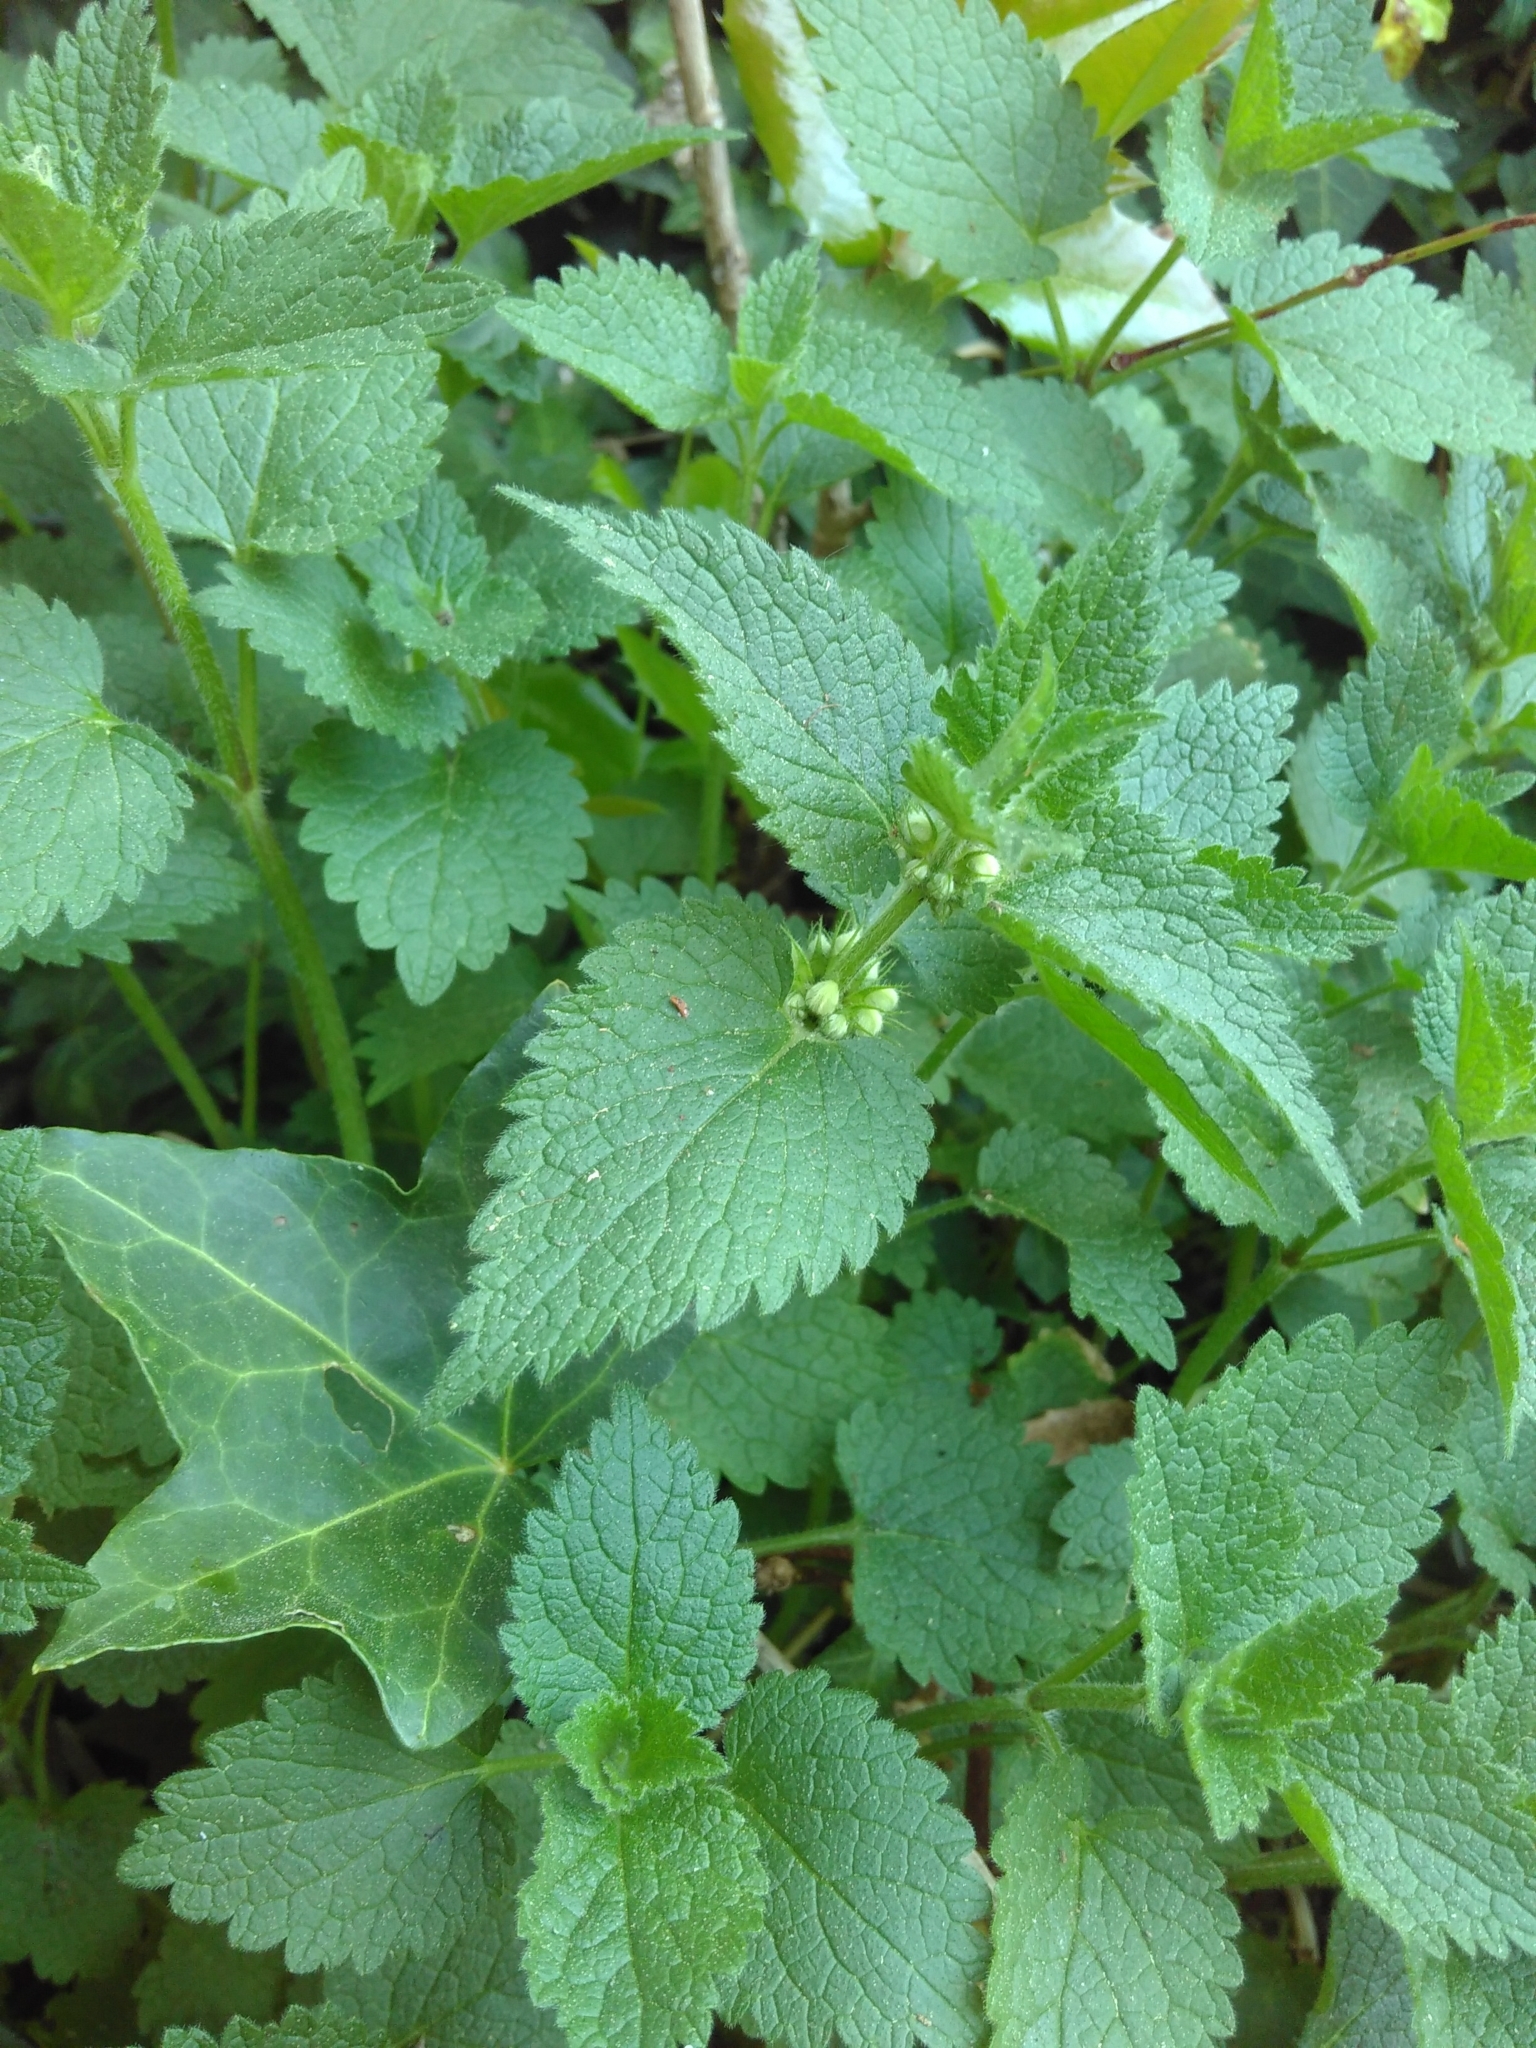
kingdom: Plantae
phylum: Tracheophyta
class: Magnoliopsida
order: Lamiales
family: Lamiaceae
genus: Lamium
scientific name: Lamium album
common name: White dead-nettle
